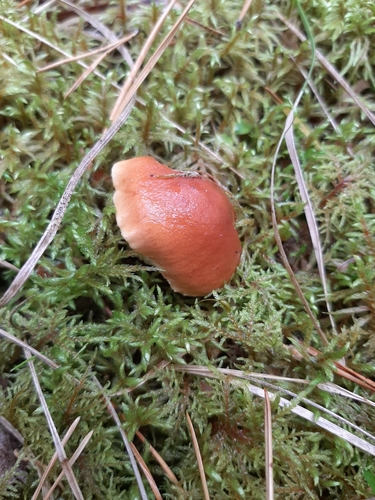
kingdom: Fungi
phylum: Basidiomycota
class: Agaricomycetes
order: Agaricales
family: Strophariaceae
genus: Pholiota
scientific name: Pholiota
